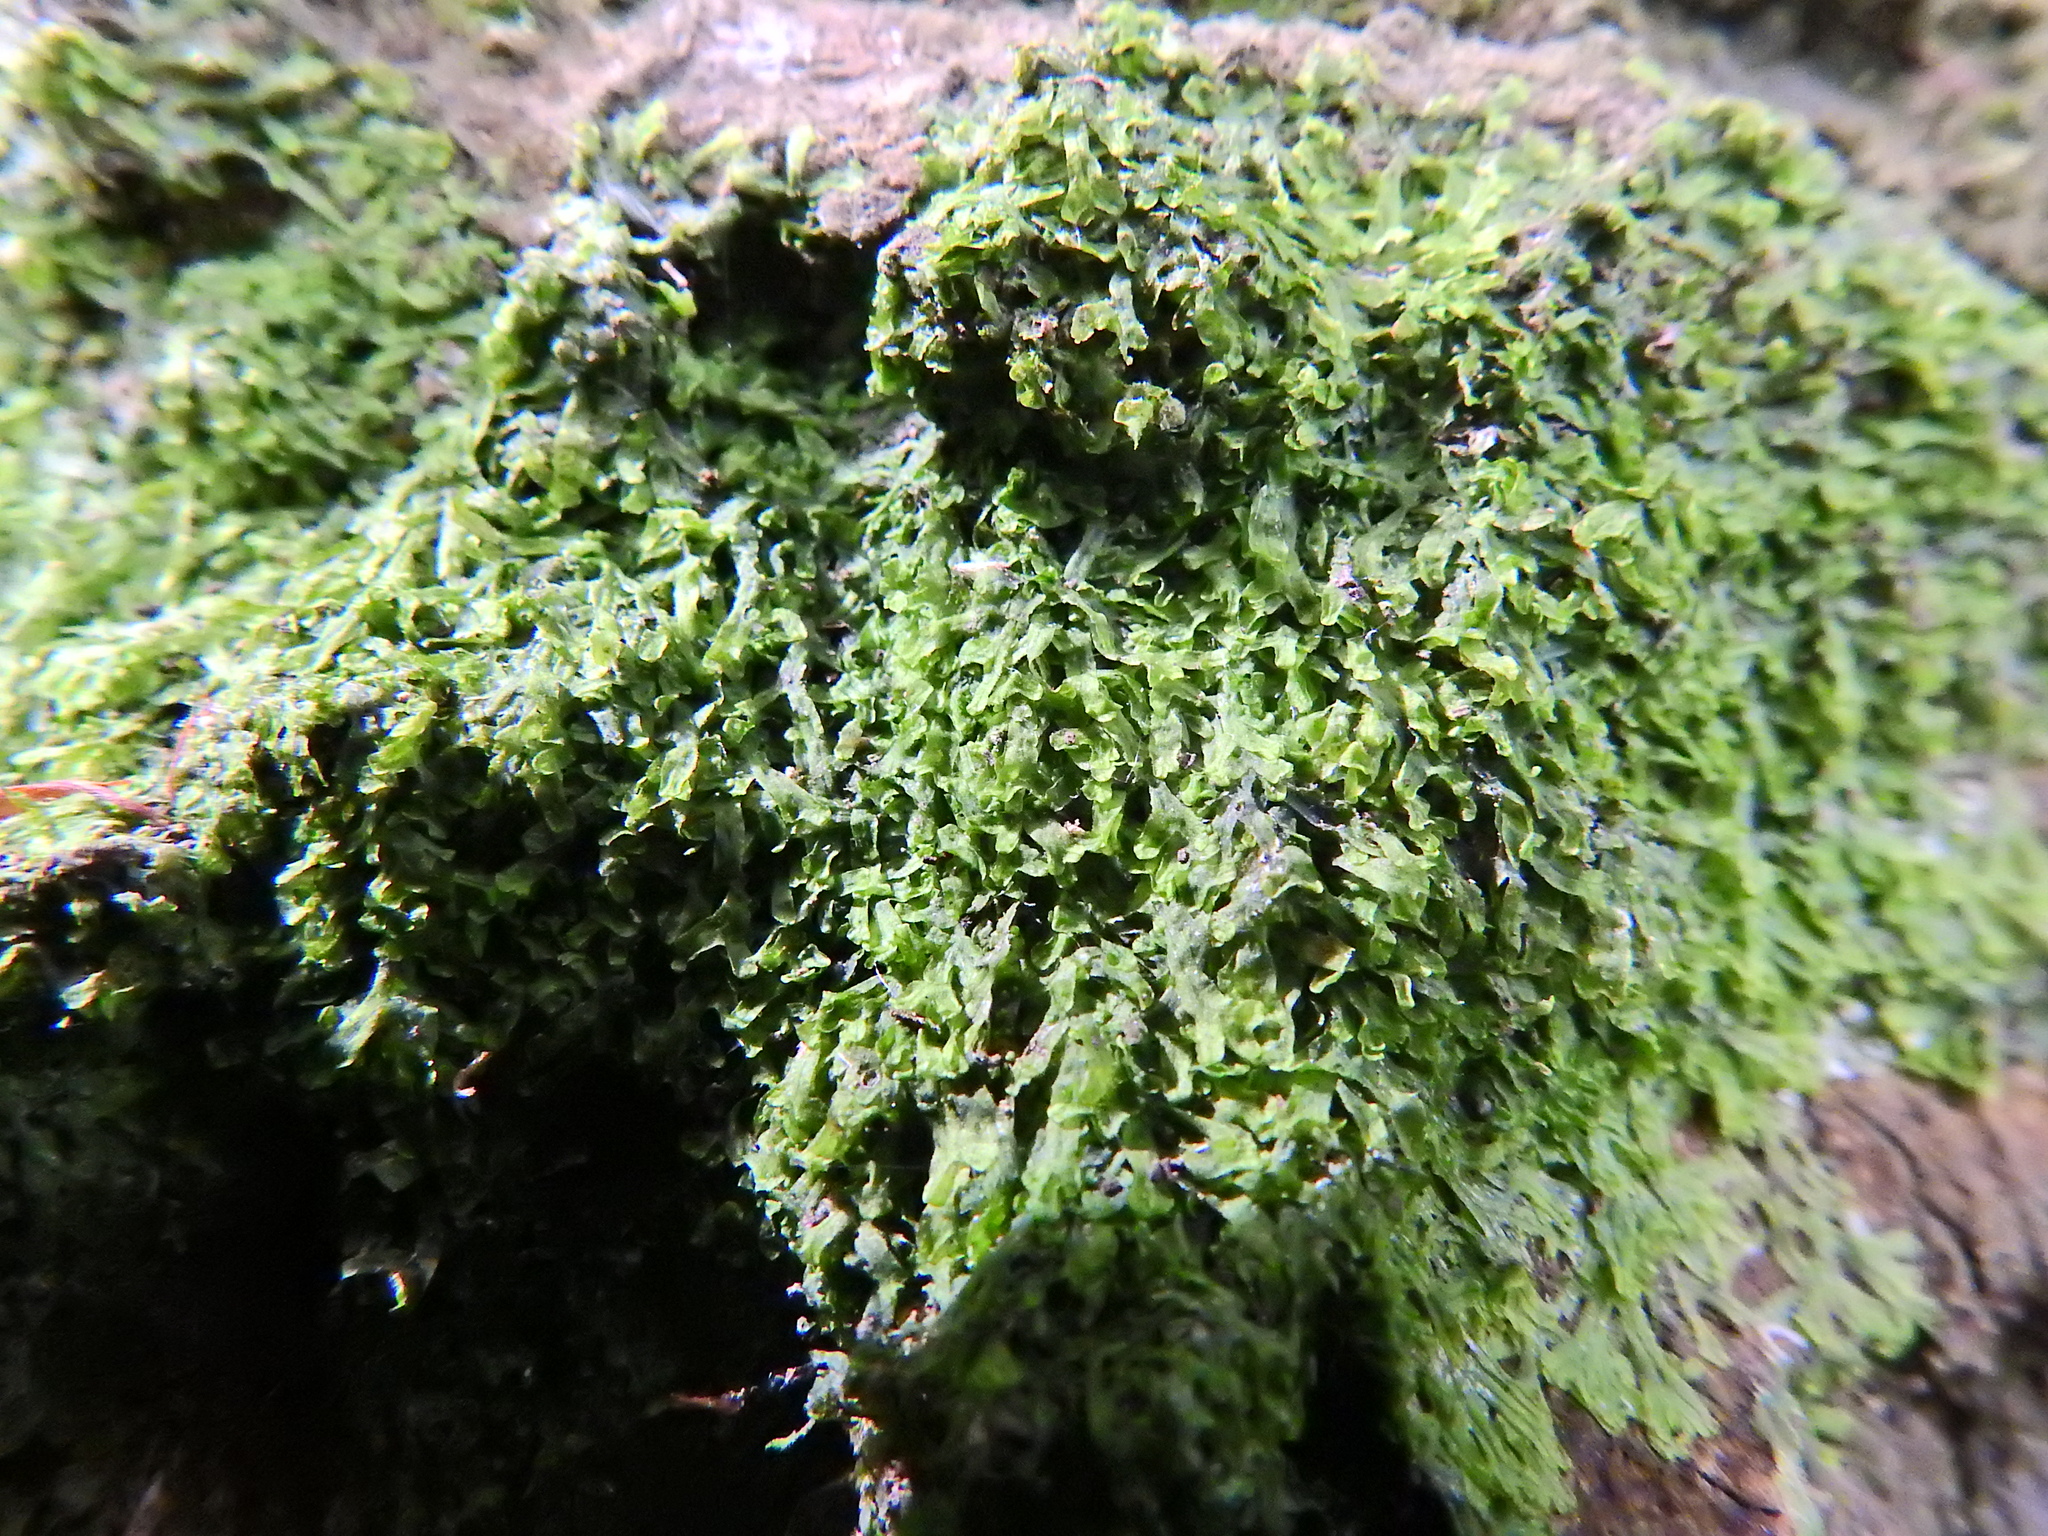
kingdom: Plantae
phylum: Marchantiophyta
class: Jungermanniopsida
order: Metzgeriales
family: Metzgeriaceae
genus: Metzgeria
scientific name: Metzgeria furcata
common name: Forked veilwort
